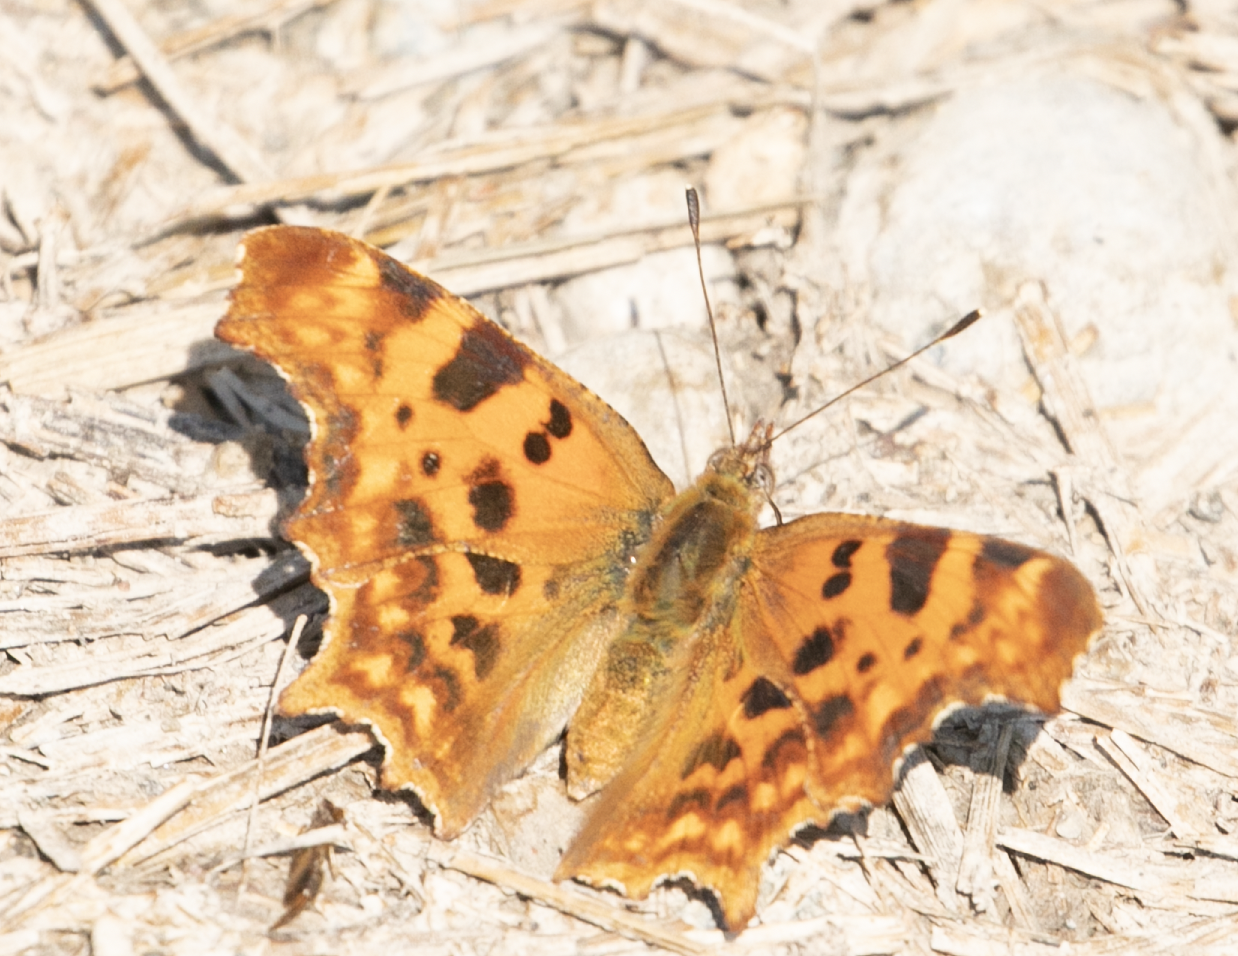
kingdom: Animalia
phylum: Arthropoda
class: Insecta
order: Lepidoptera
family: Nymphalidae
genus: Polygonia
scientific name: Polygonia c-album
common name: Comma
